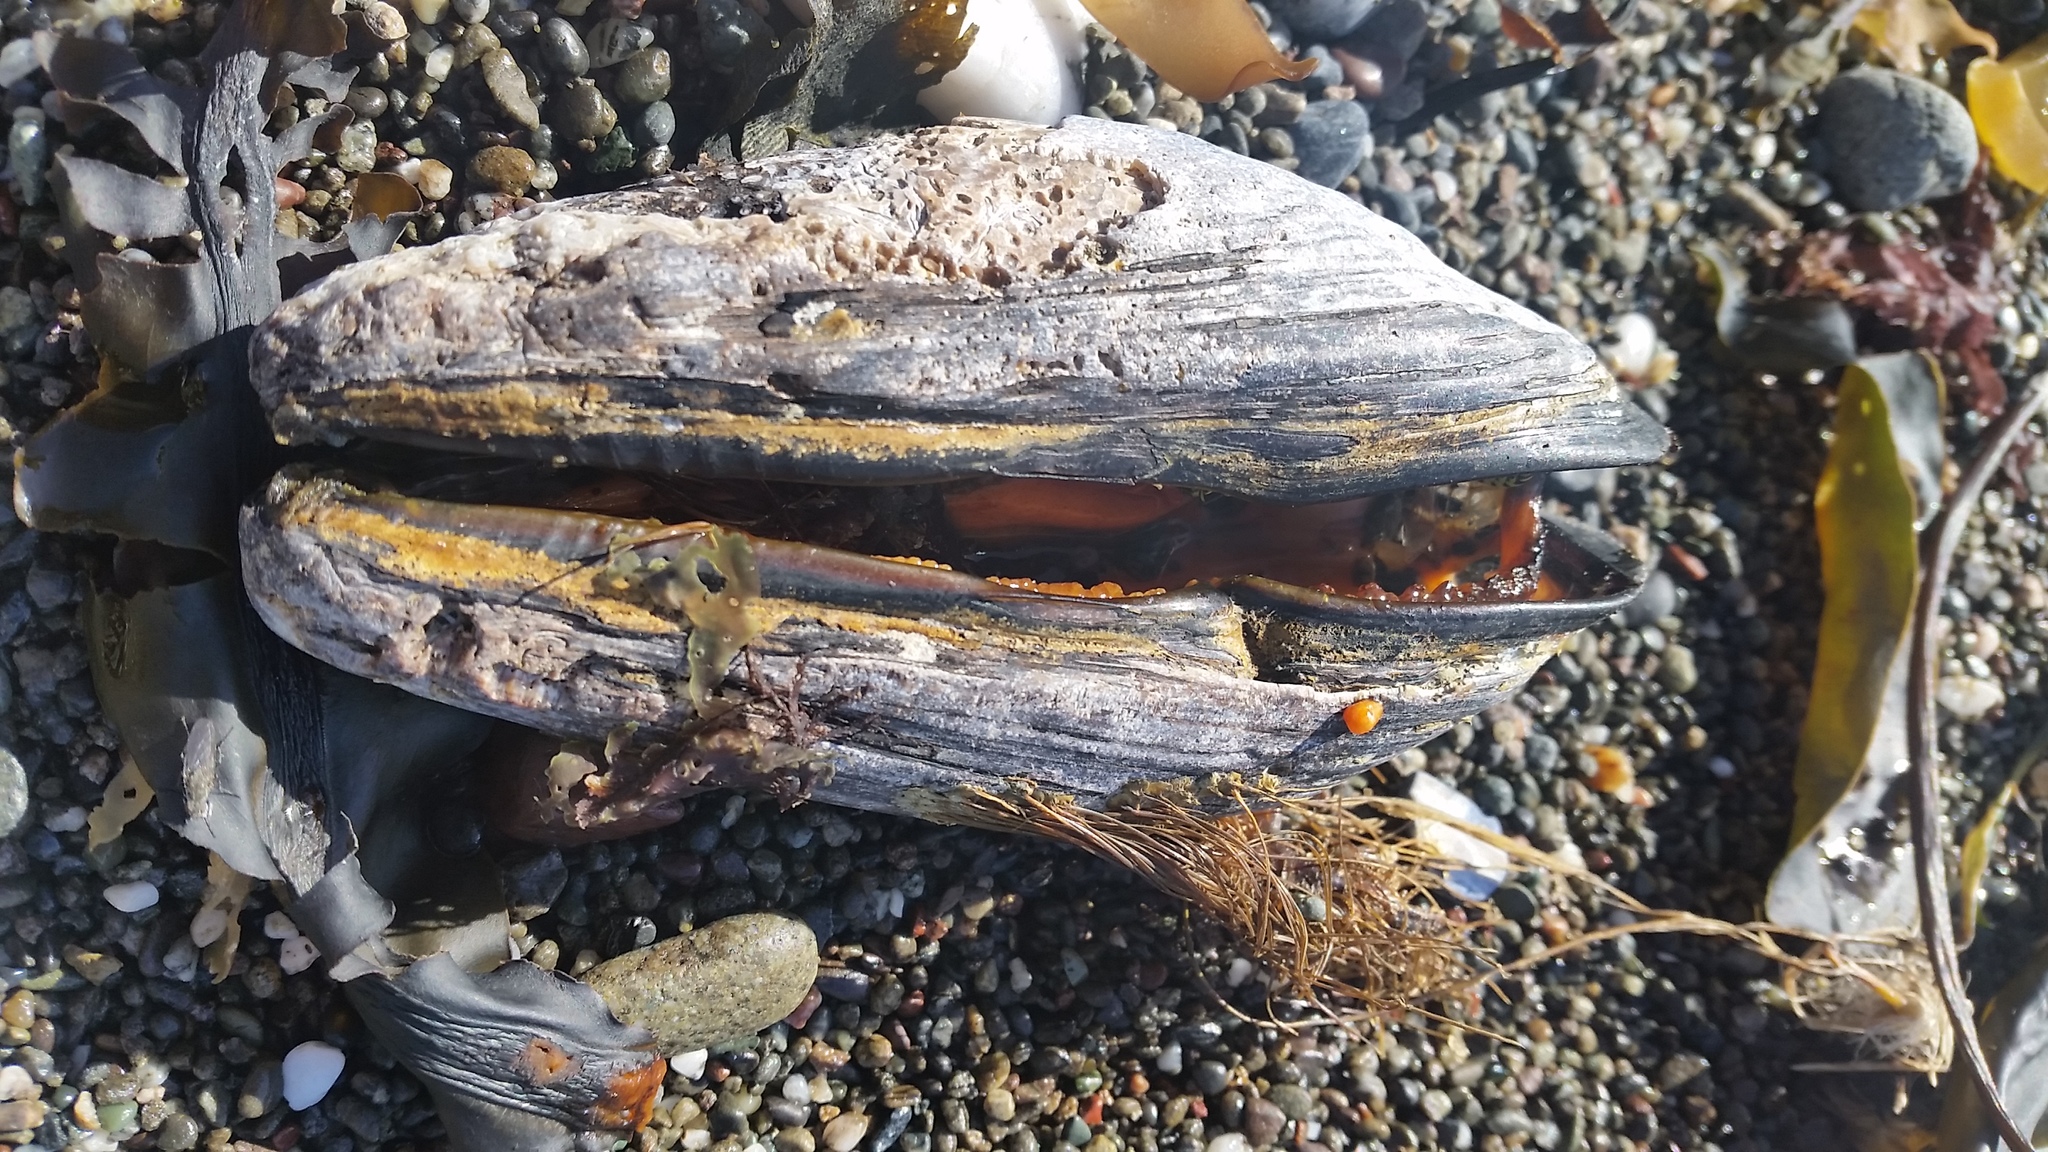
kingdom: Animalia
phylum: Mollusca
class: Bivalvia
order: Mytilida
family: Mytilidae
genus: Mytilus
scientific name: Mytilus californianus
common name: California mussel
